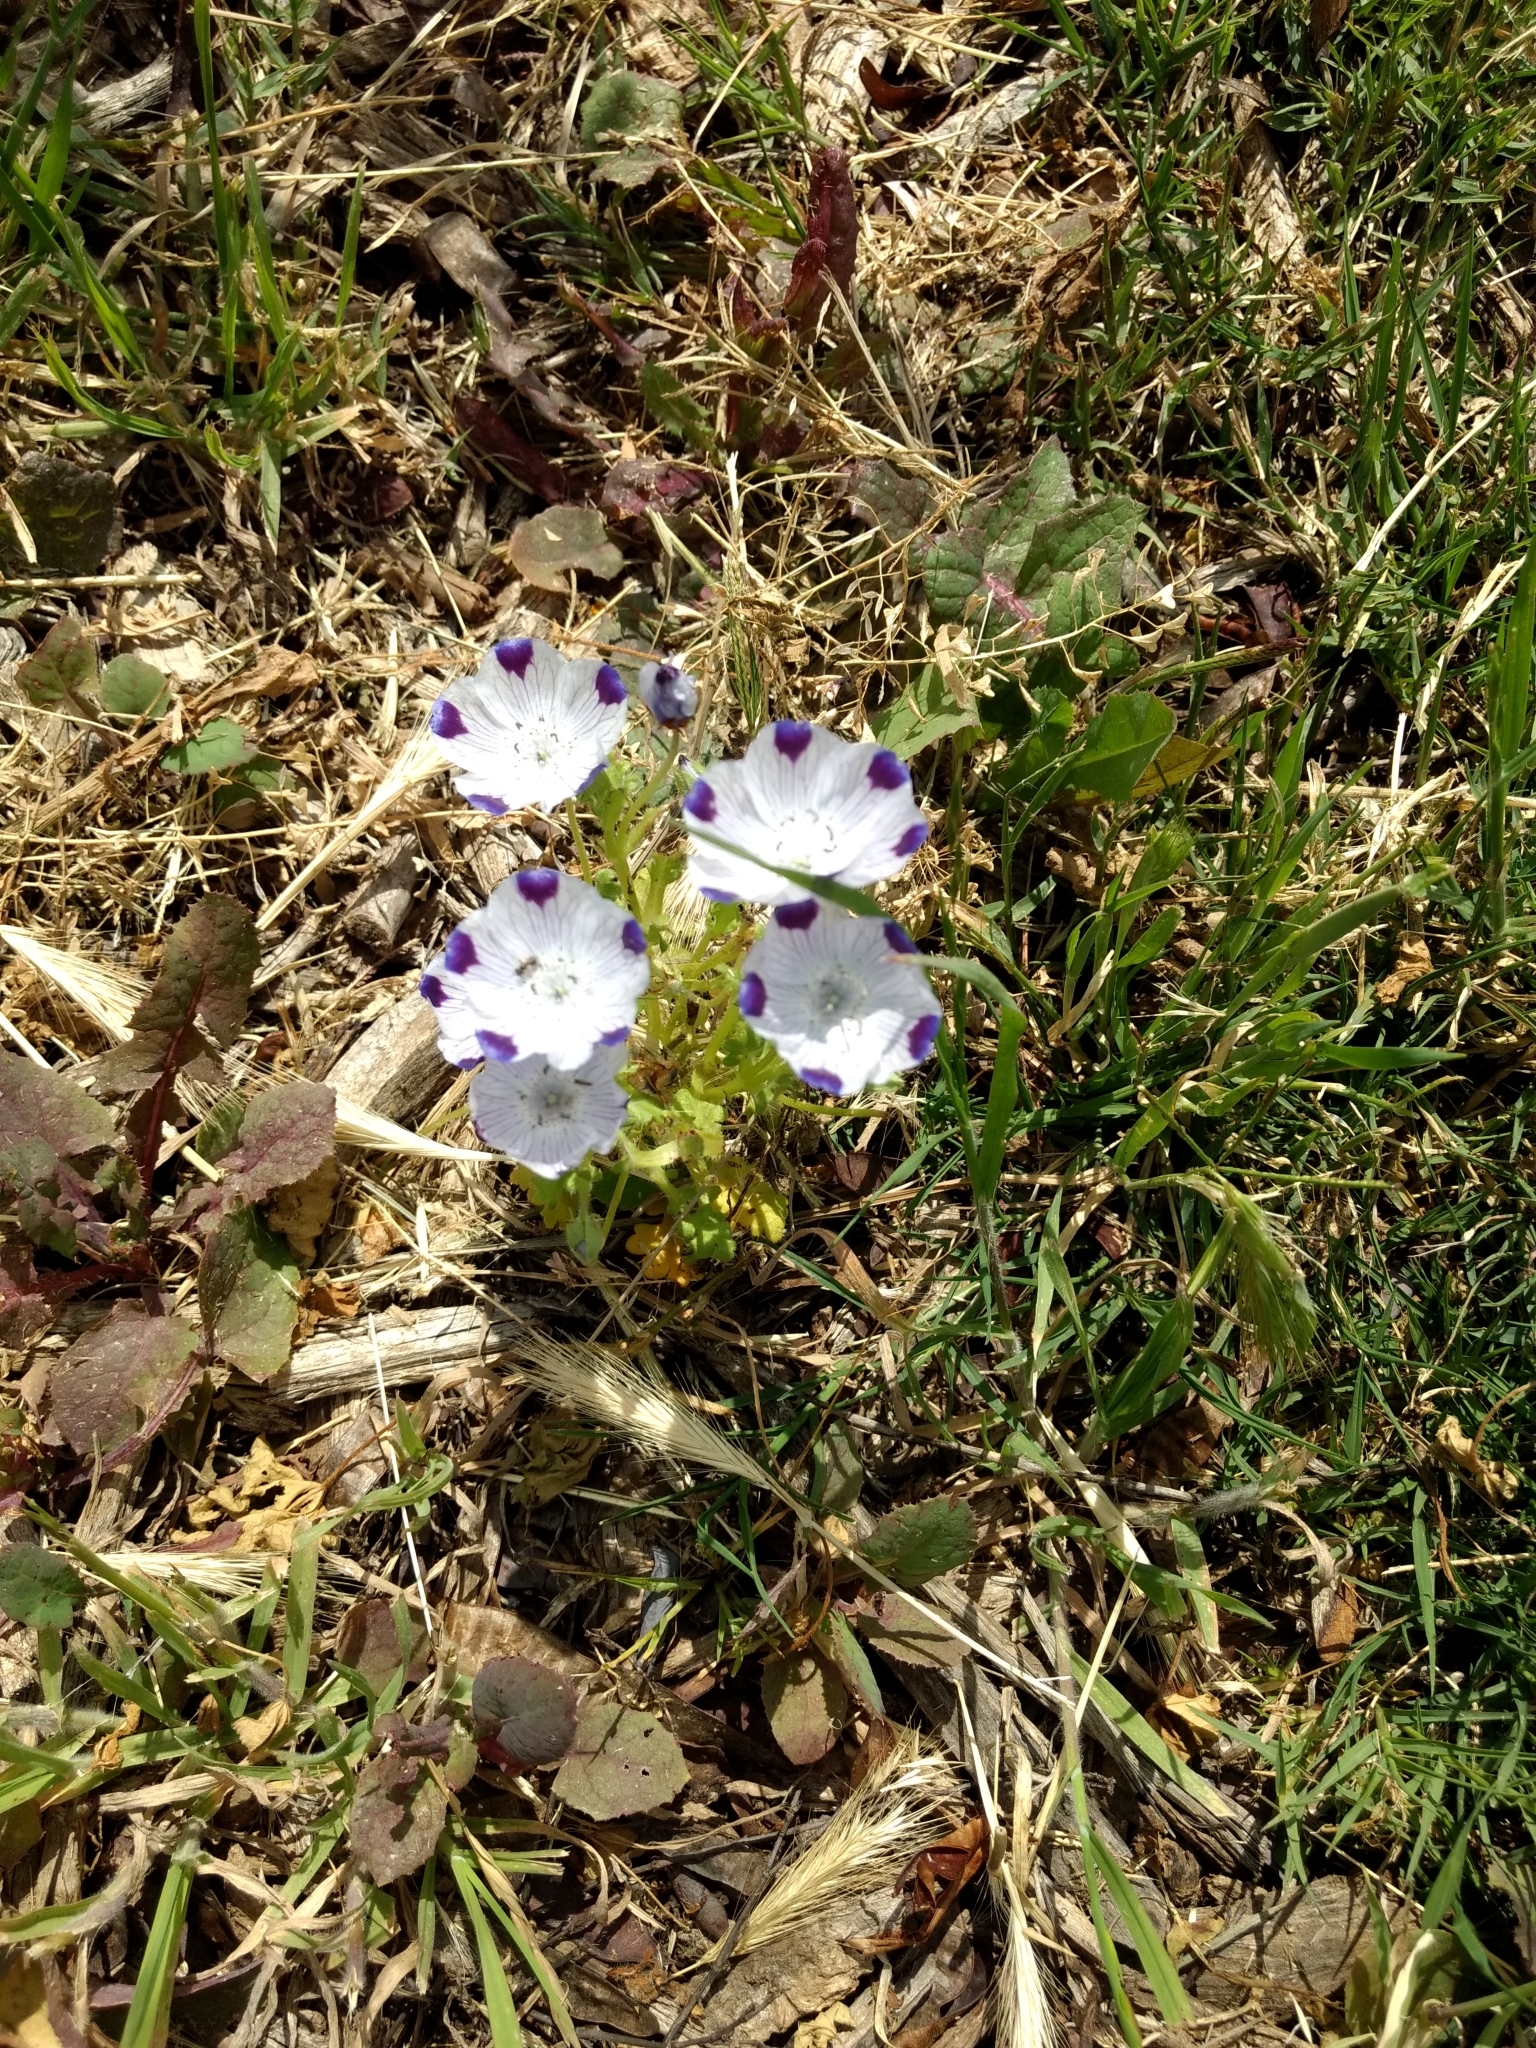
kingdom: Plantae
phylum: Tracheophyta
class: Magnoliopsida
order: Boraginales
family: Hydrophyllaceae
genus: Nemophila
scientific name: Nemophila maculata
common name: Fivespot
